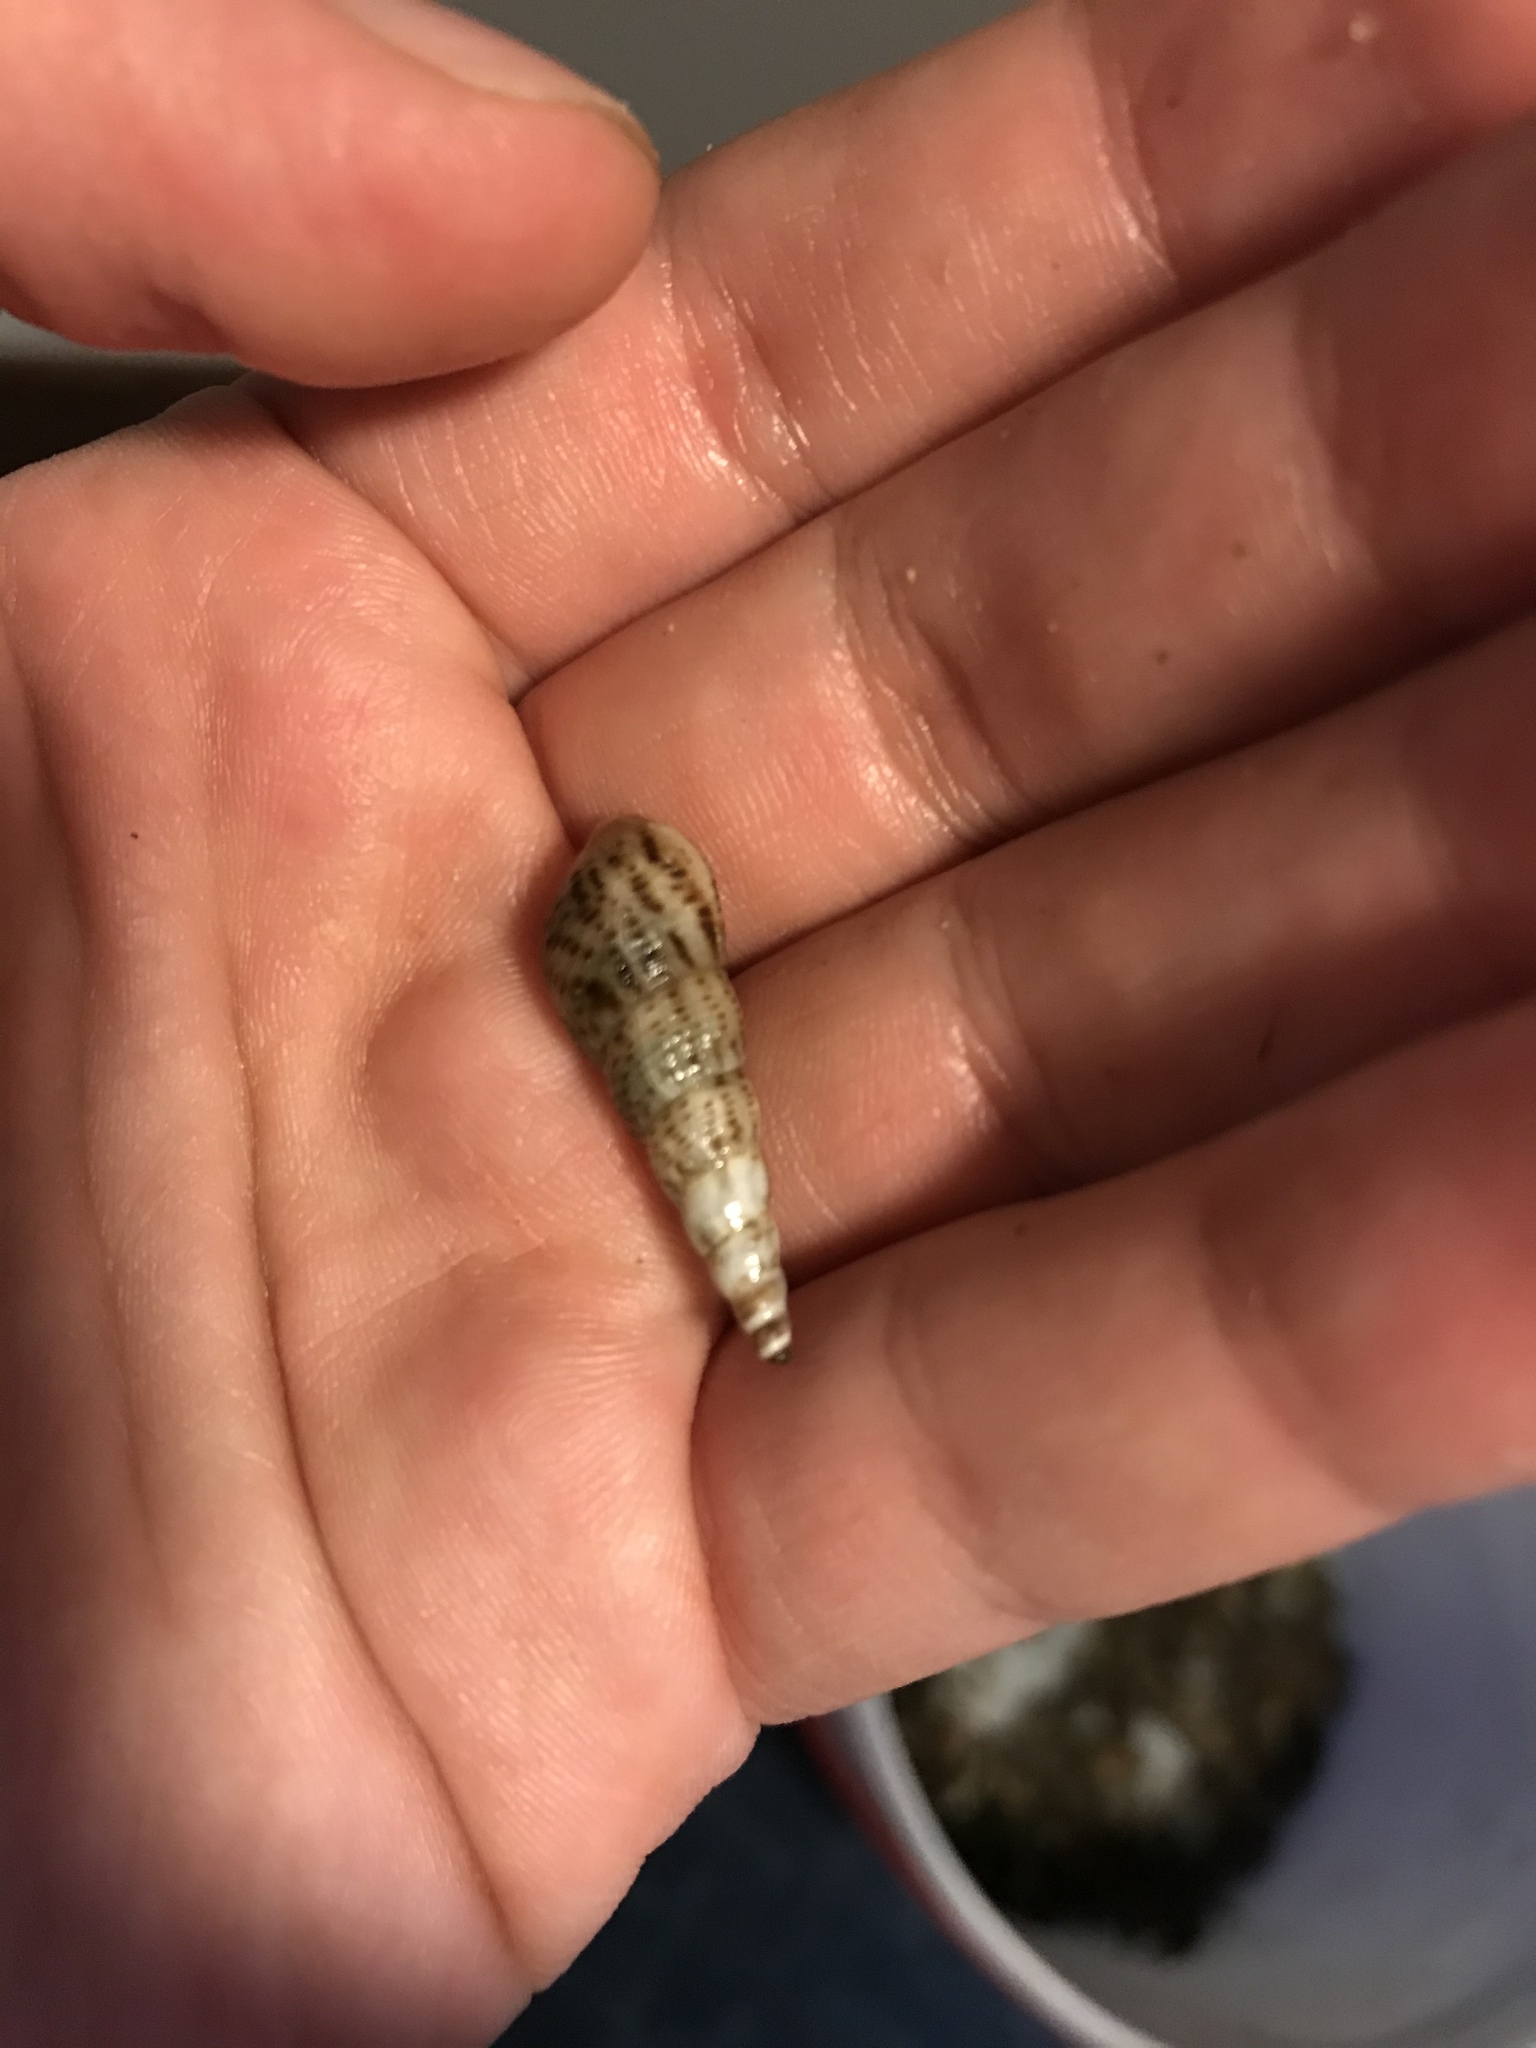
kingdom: Animalia
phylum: Mollusca
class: Gastropoda
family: Thiaridae
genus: Melanoides
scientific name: Melanoides tuberculata
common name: Red-rim melania
